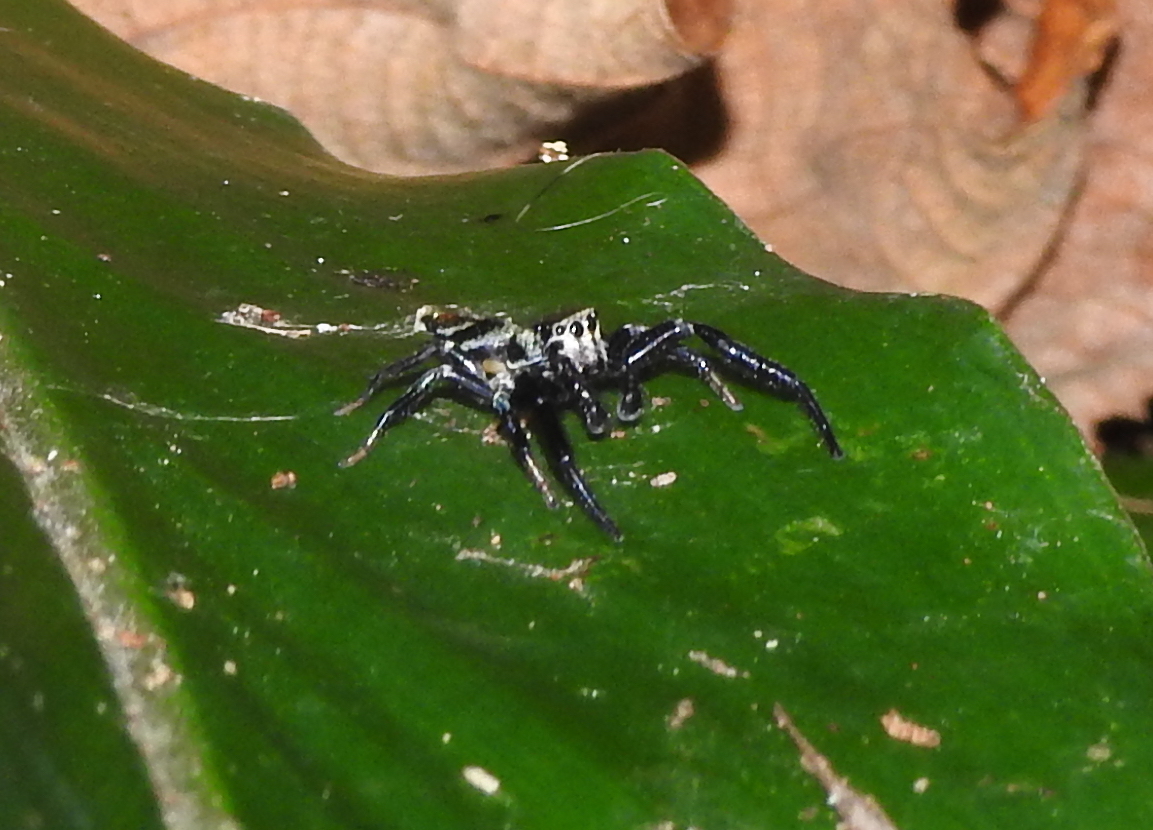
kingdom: Animalia
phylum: Arthropoda
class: Arachnida
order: Araneae
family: Salticidae
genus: Thiania
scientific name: Thiania bhamoensis
